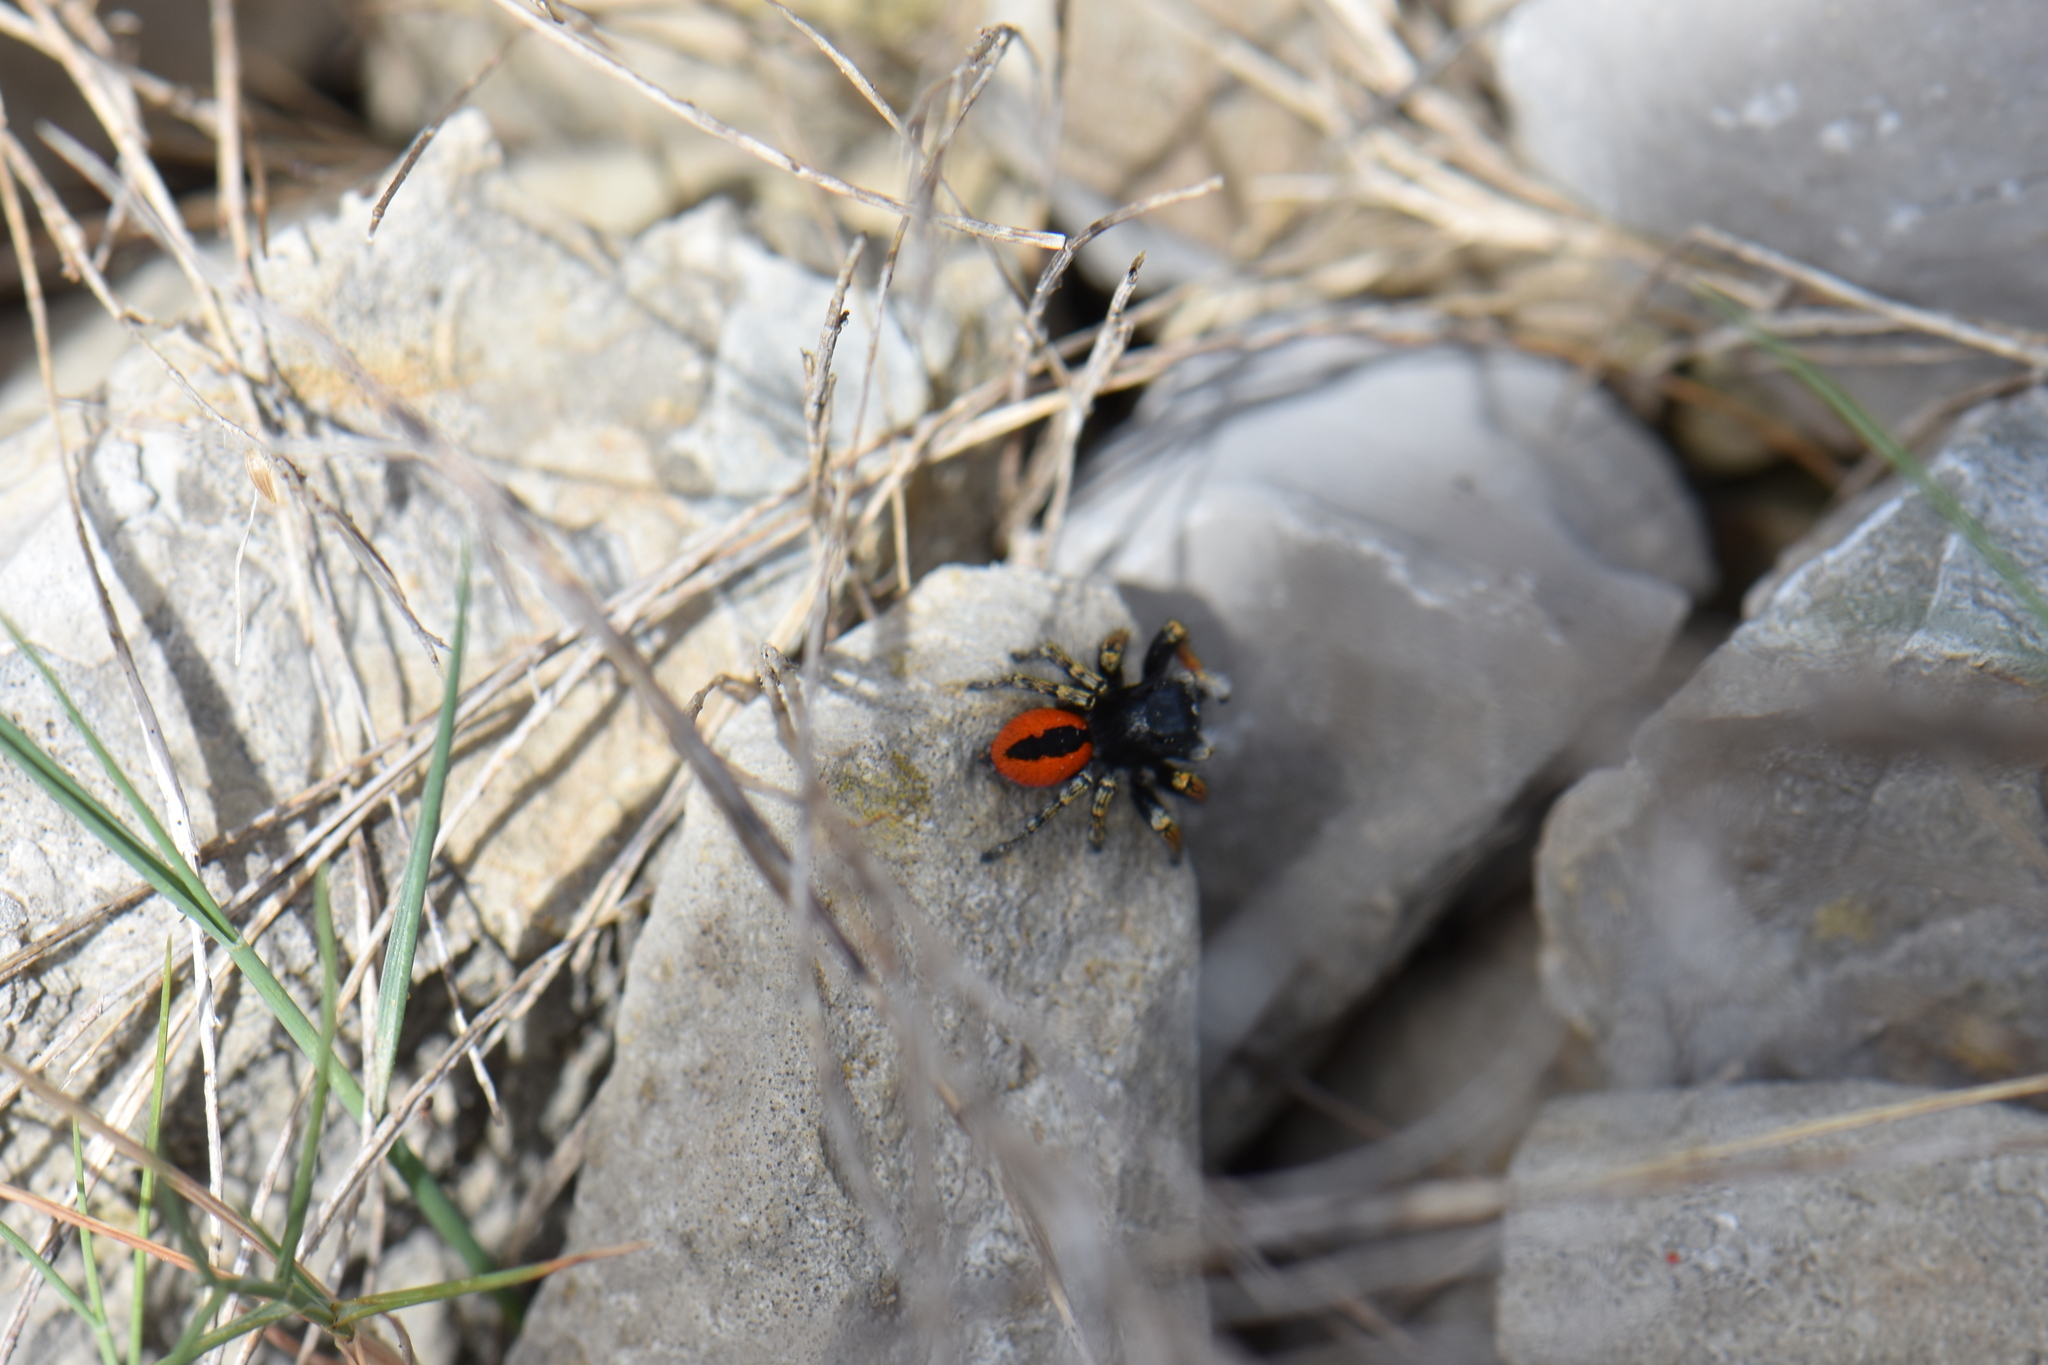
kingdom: Animalia
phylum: Arthropoda
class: Arachnida
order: Araneae
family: Salticidae
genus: Philaeus
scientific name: Philaeus chrysops
